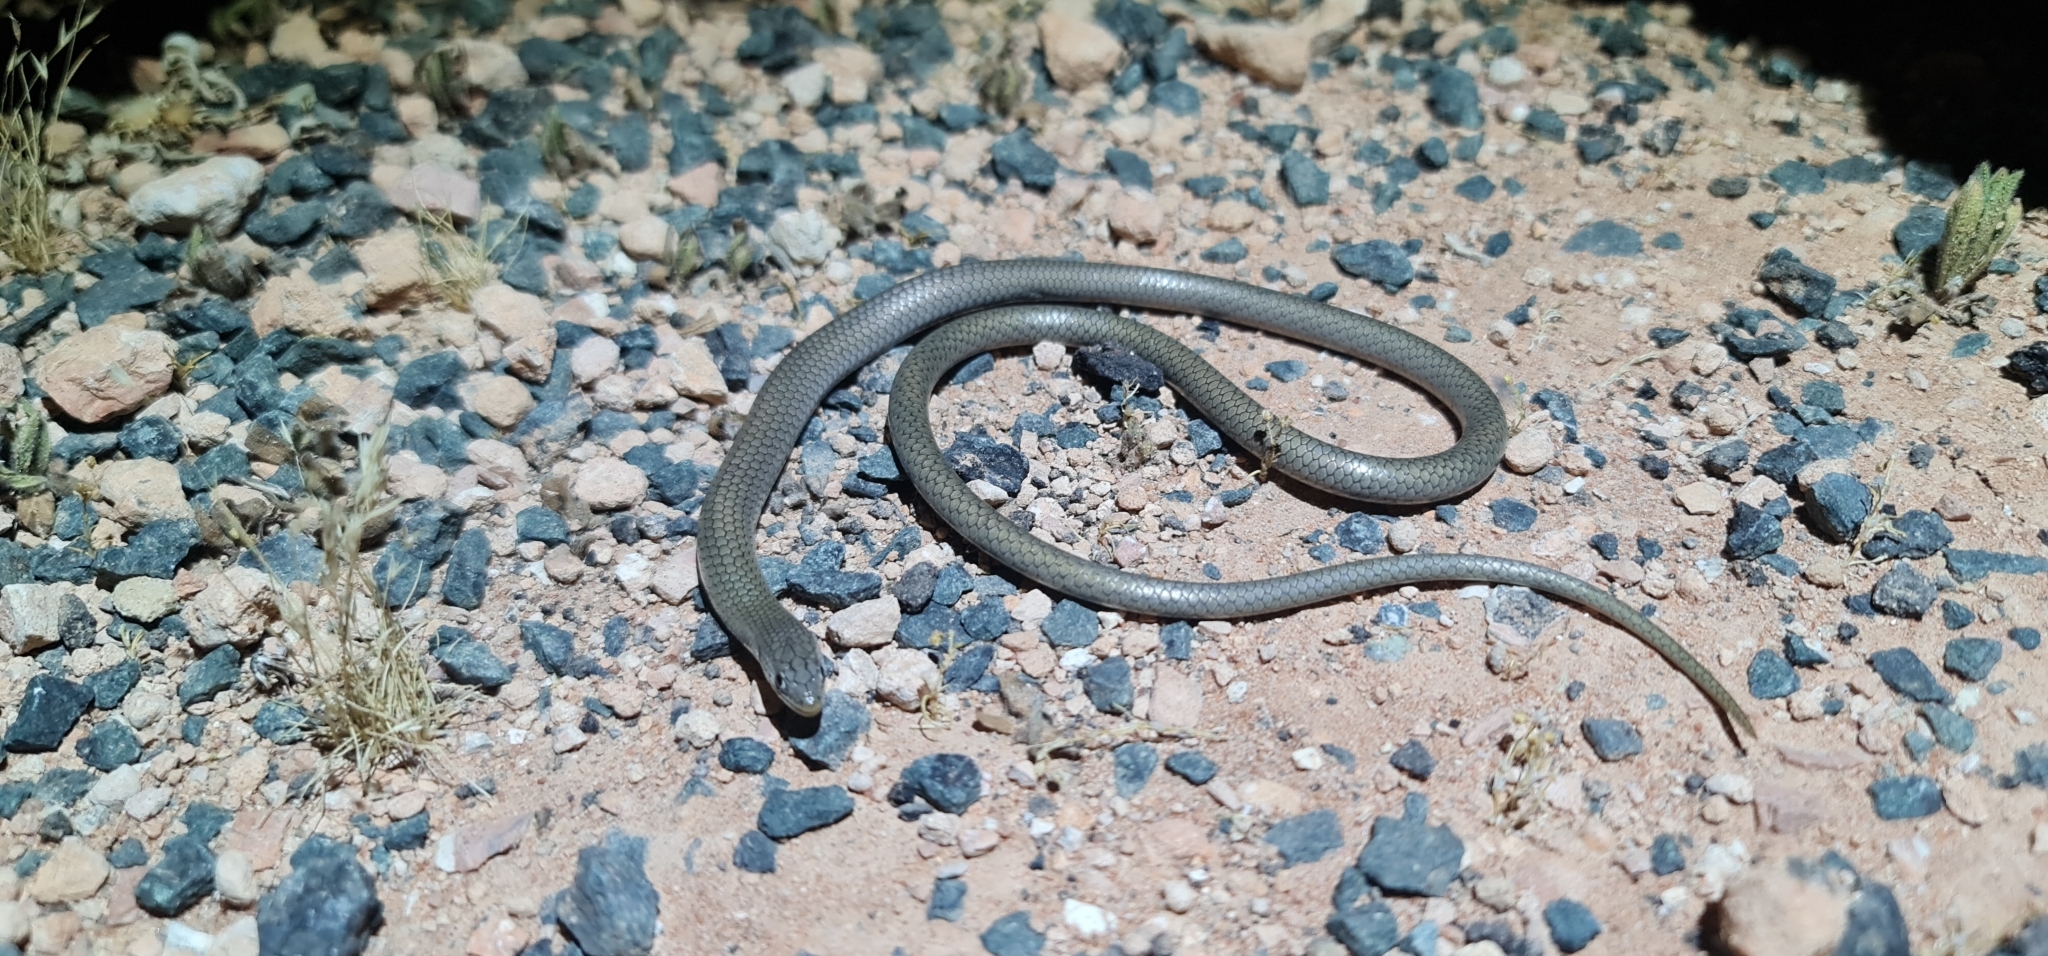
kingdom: Animalia
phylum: Chordata
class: Squamata
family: Pygopodidae
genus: Delma
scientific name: Delma inornata
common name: Patternless delma
